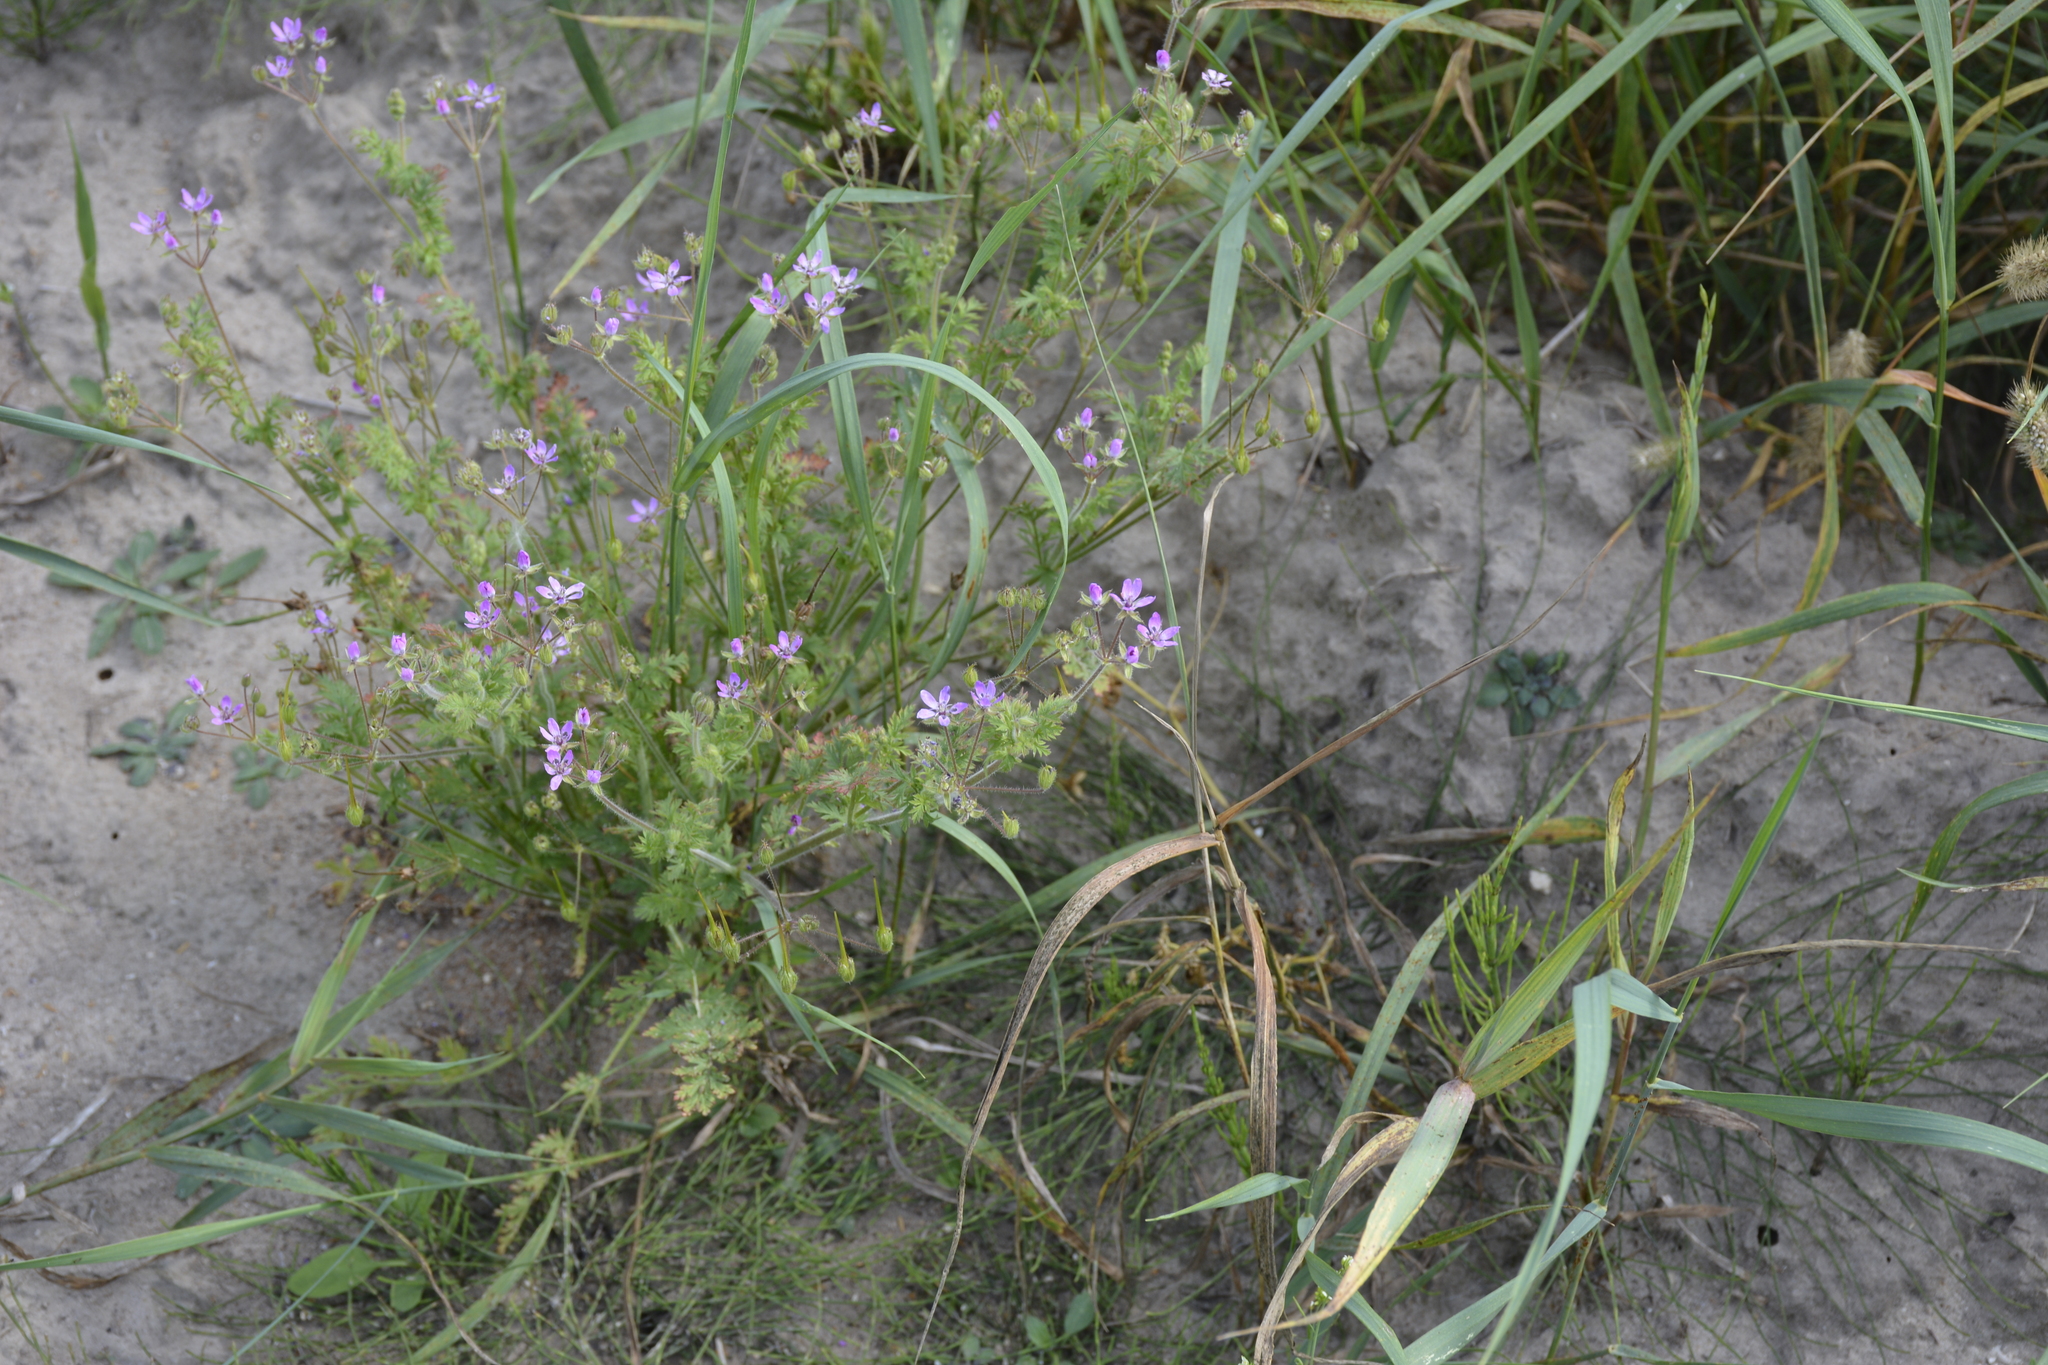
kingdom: Plantae
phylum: Tracheophyta
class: Magnoliopsida
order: Geraniales
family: Geraniaceae
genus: Erodium
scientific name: Erodium cicutarium
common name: Common stork's-bill
